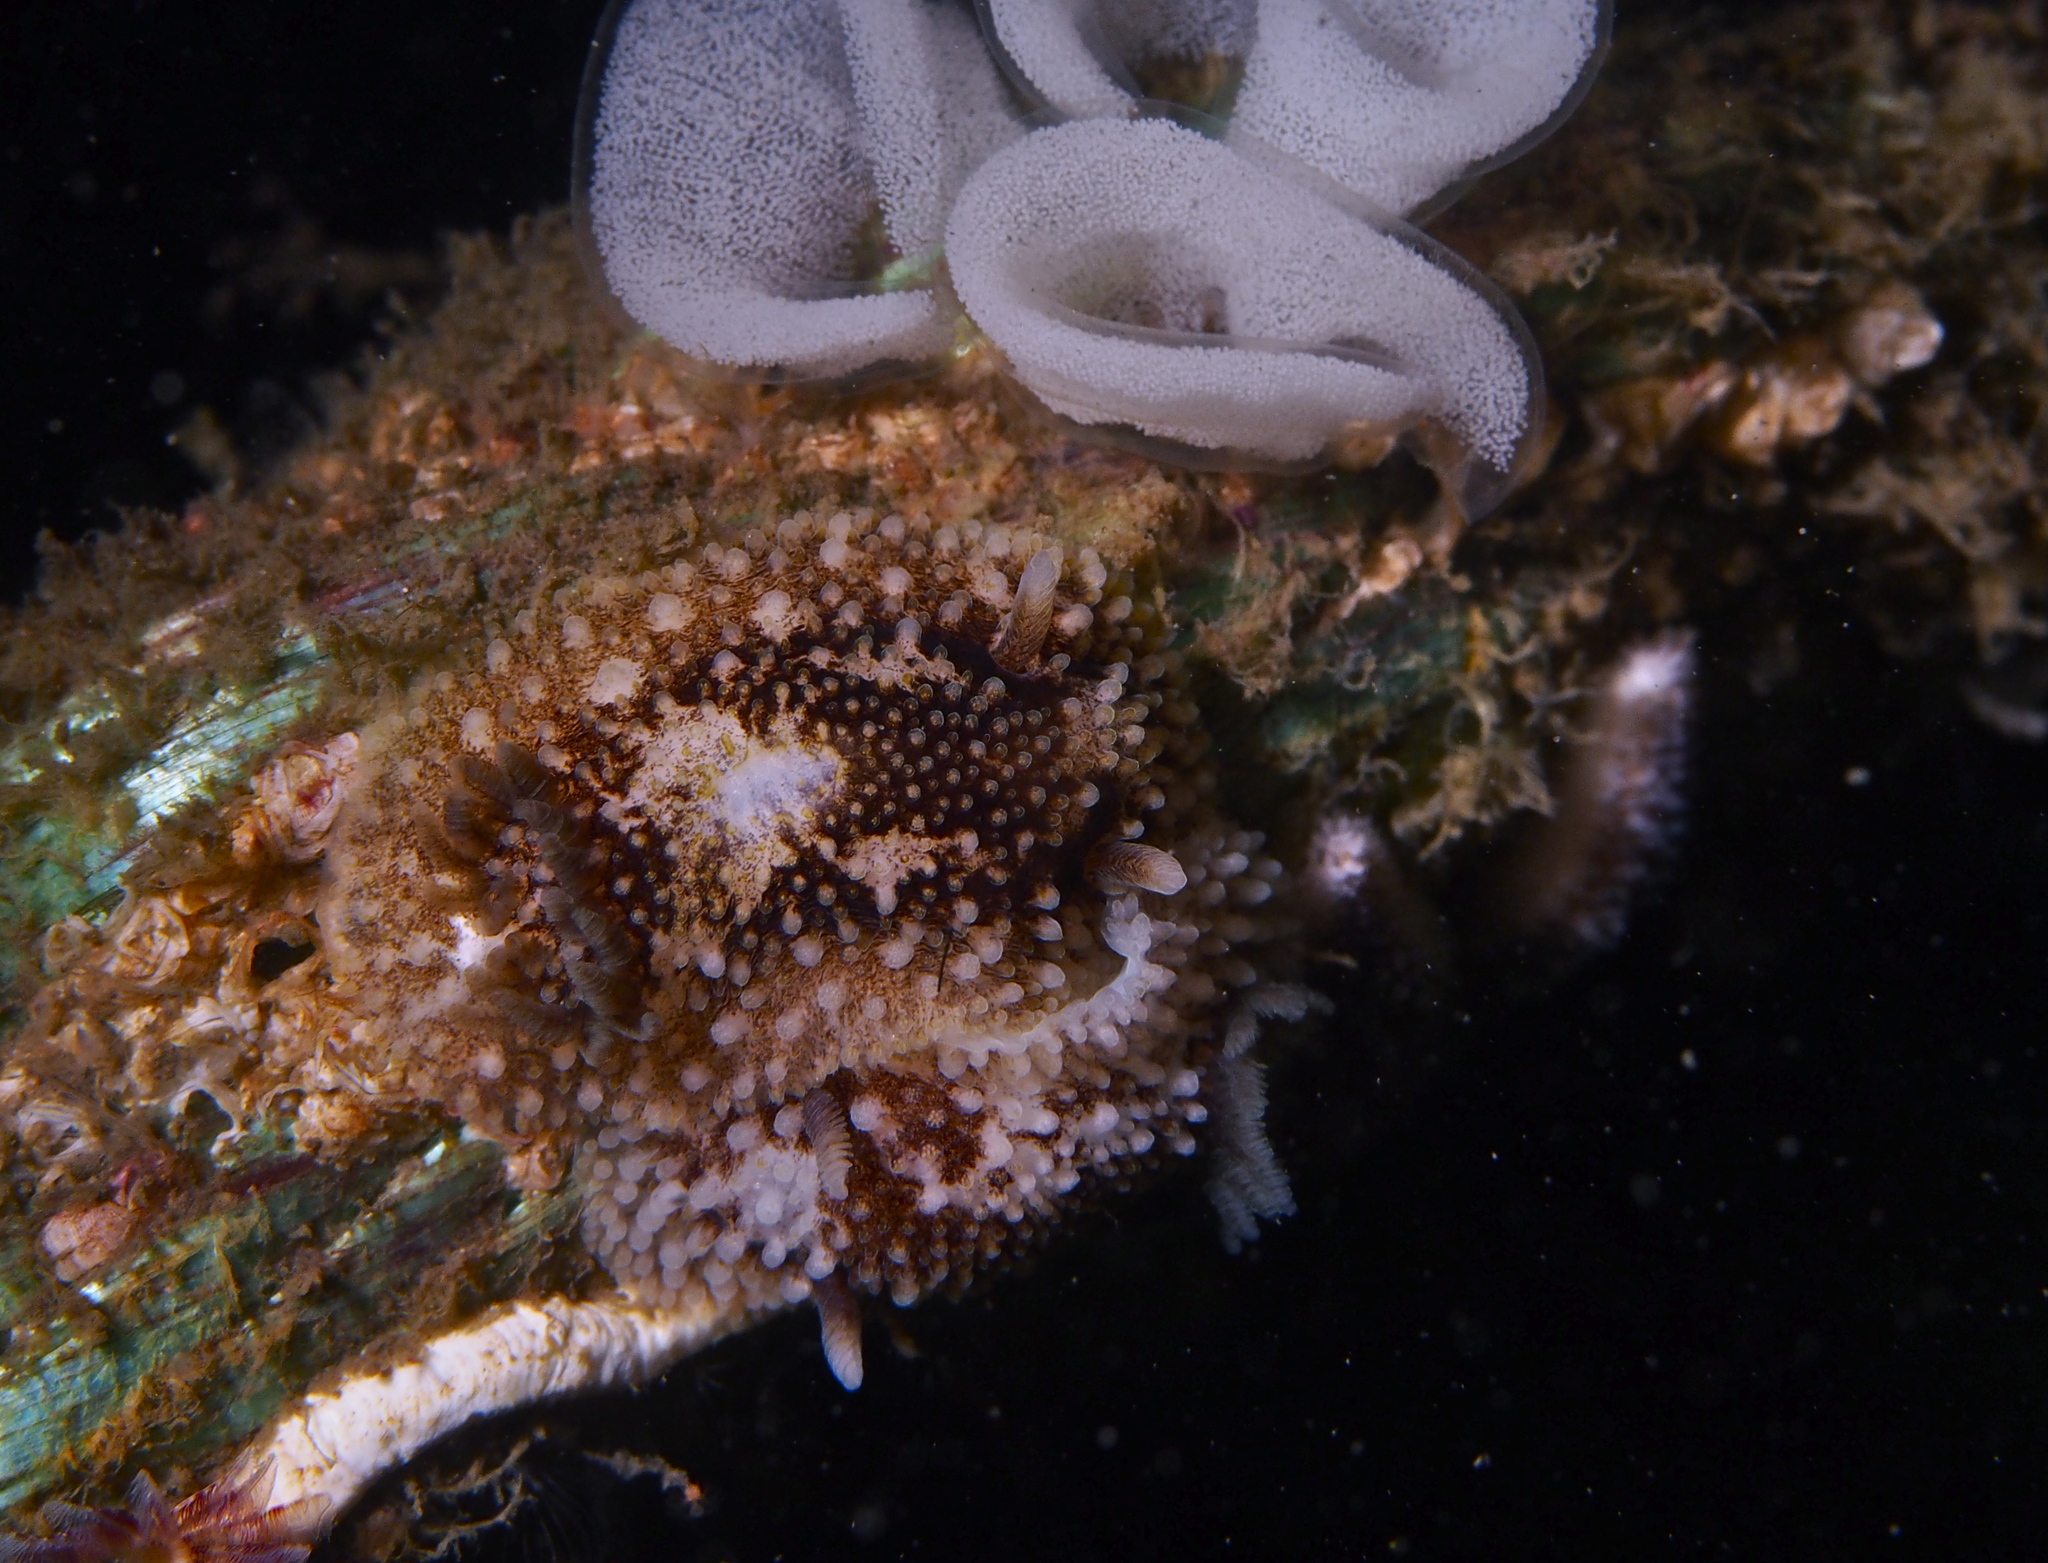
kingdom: Animalia
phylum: Mollusca
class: Gastropoda
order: Nudibranchia
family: Onchidorididae
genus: Onchidoris
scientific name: Onchidoris bilamellata
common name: Barnacle-eating onchidoris
